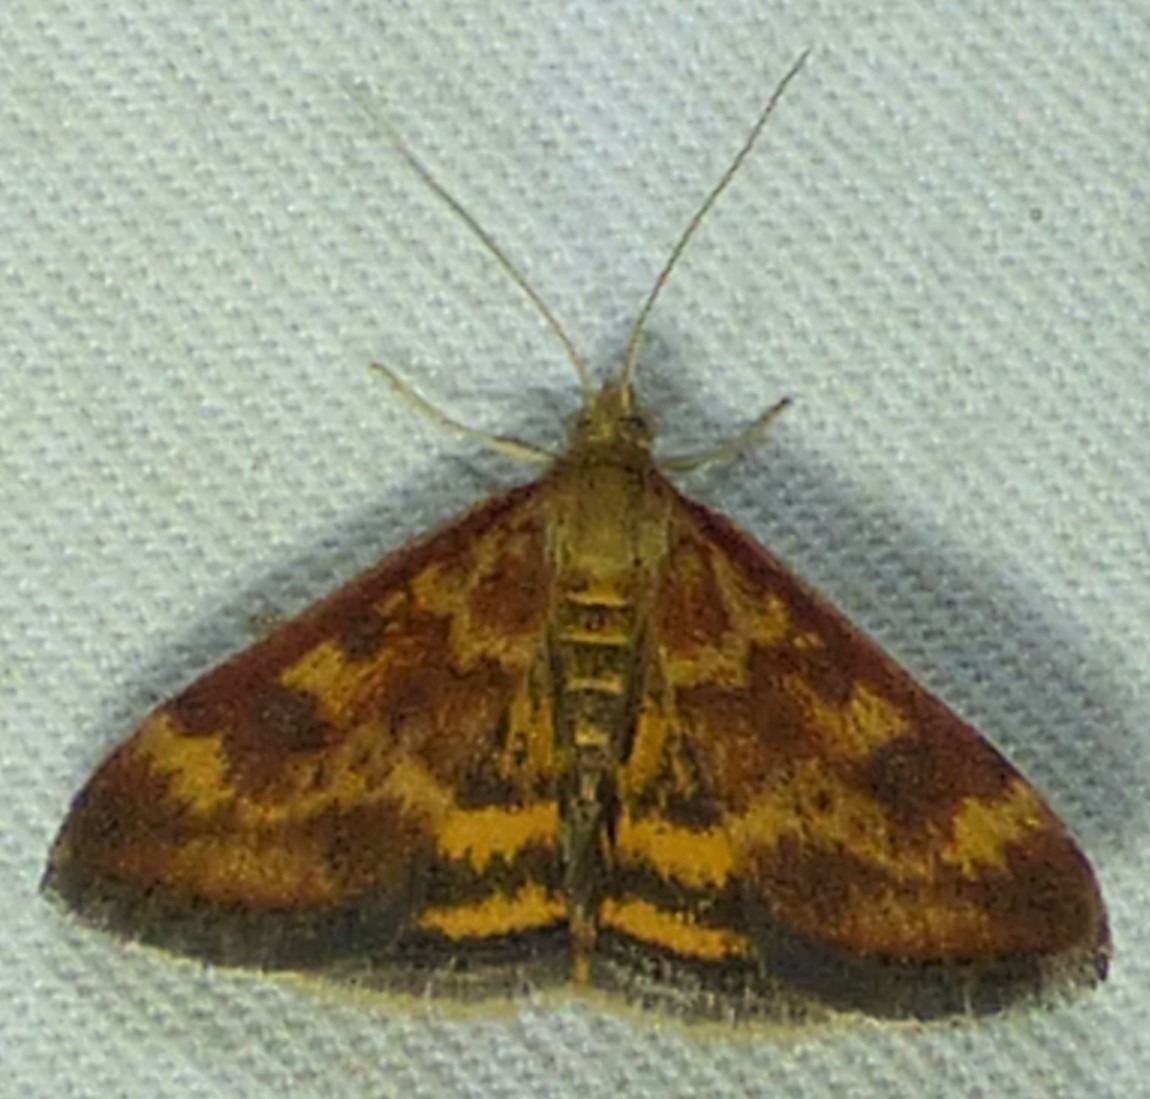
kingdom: Animalia
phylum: Arthropoda
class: Insecta
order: Lepidoptera
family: Crambidae
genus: Pyrausta
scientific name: Pyrausta subsequalis
